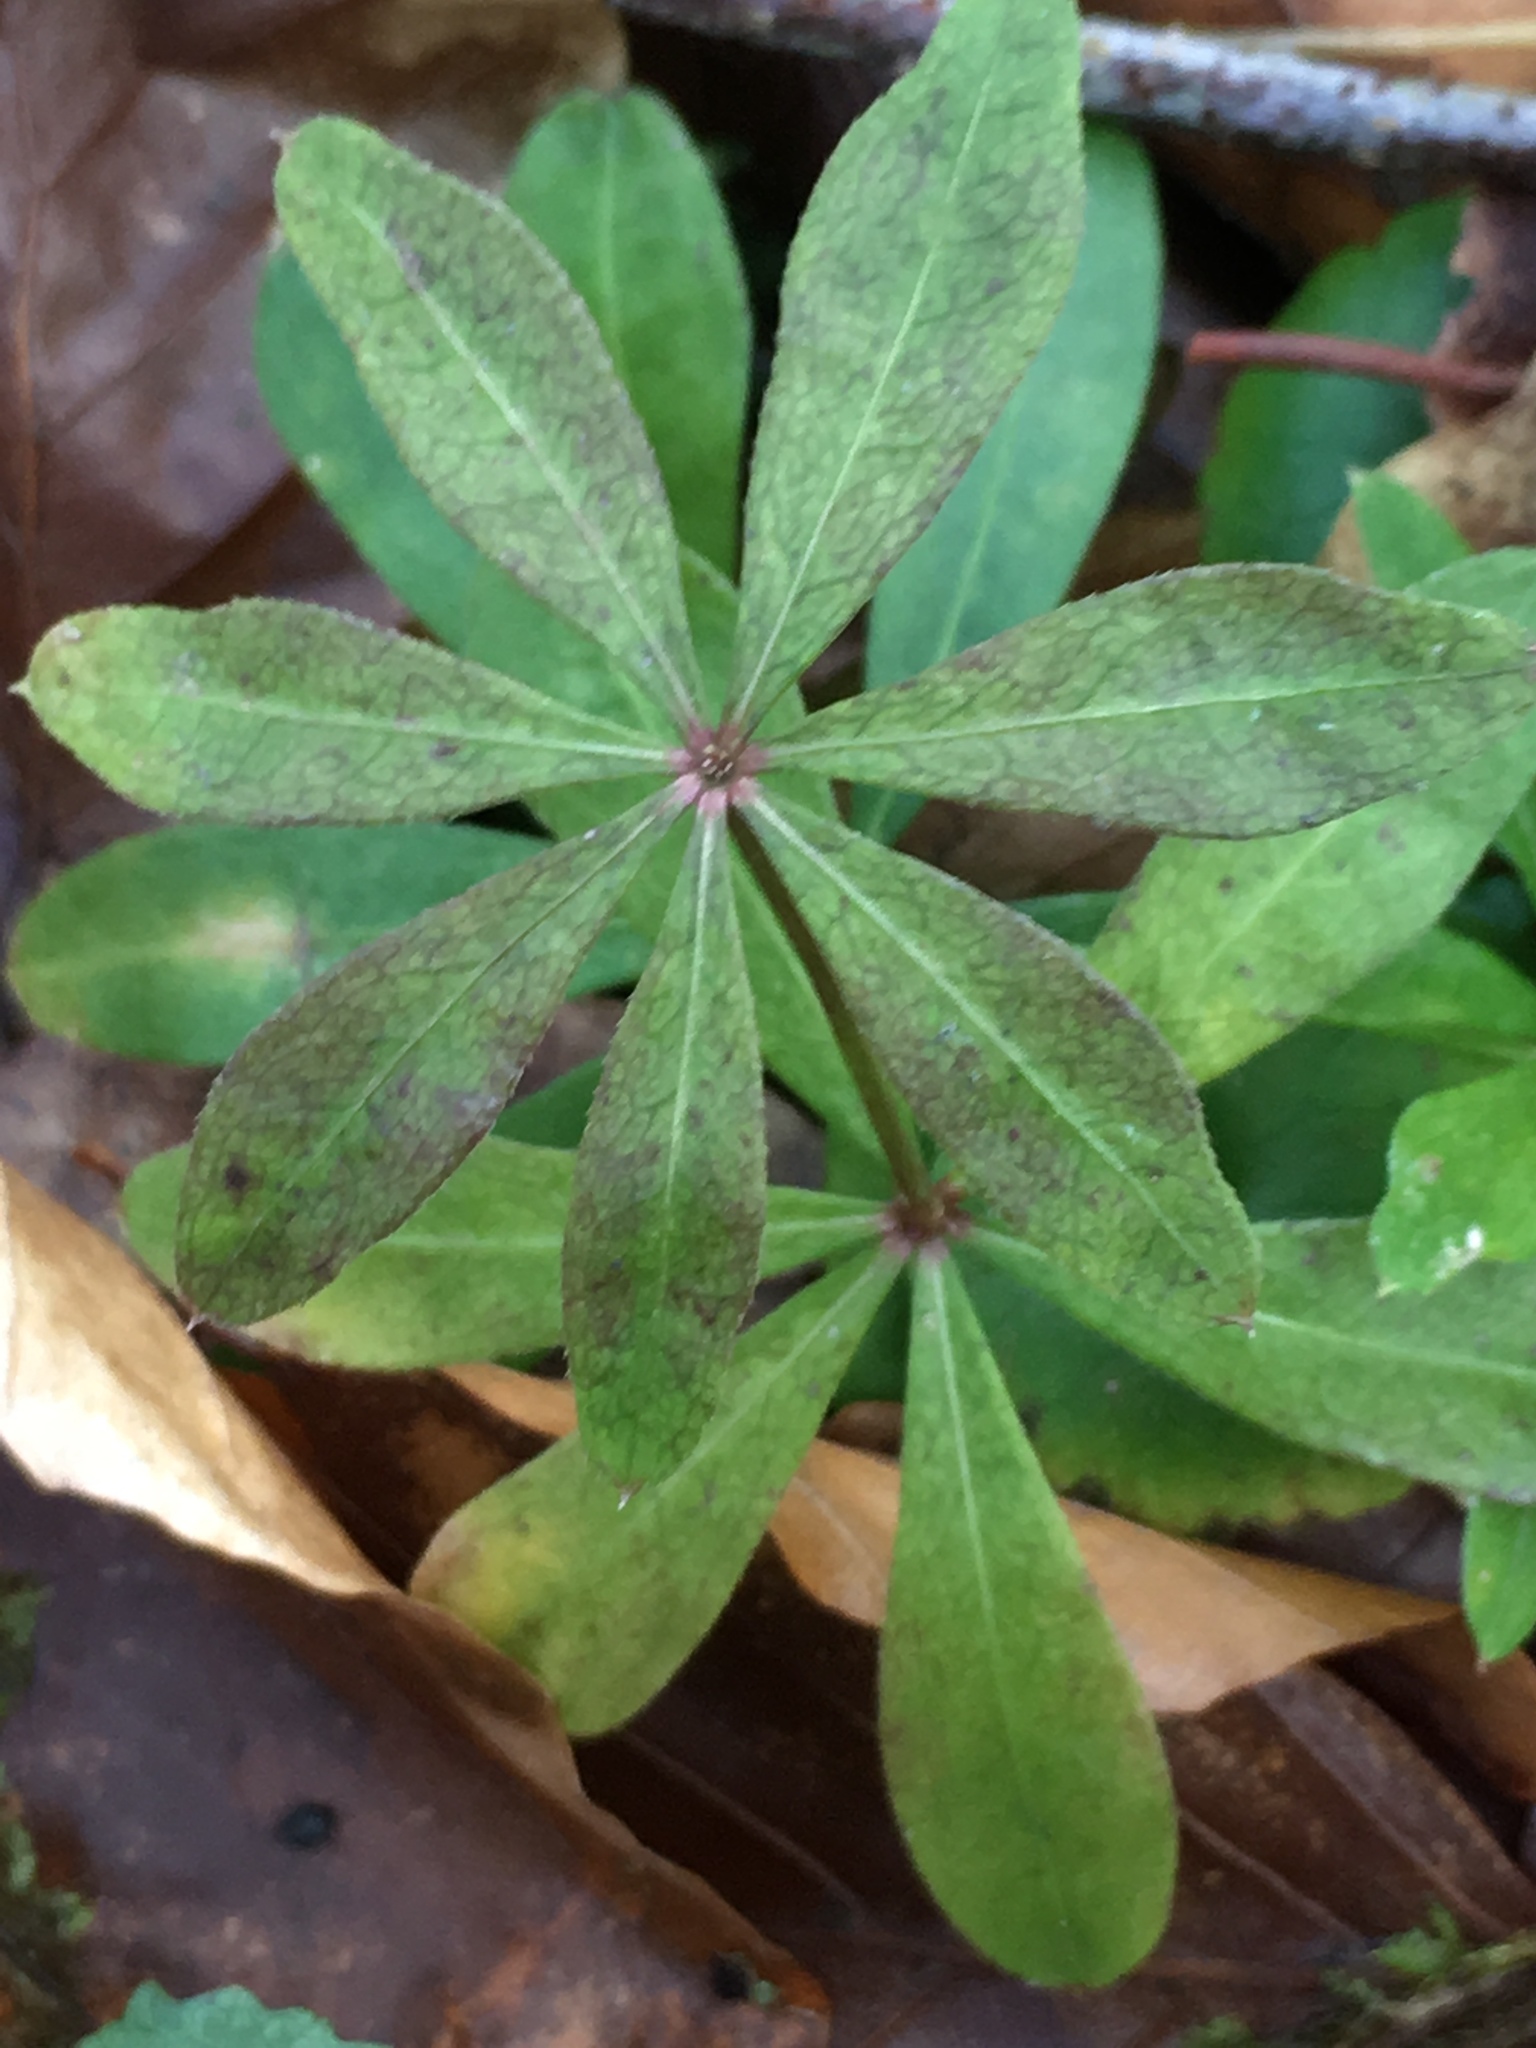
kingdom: Plantae
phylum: Tracheophyta
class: Magnoliopsida
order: Gentianales
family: Rubiaceae
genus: Galium
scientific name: Galium odoratum
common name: Sweet woodruff
